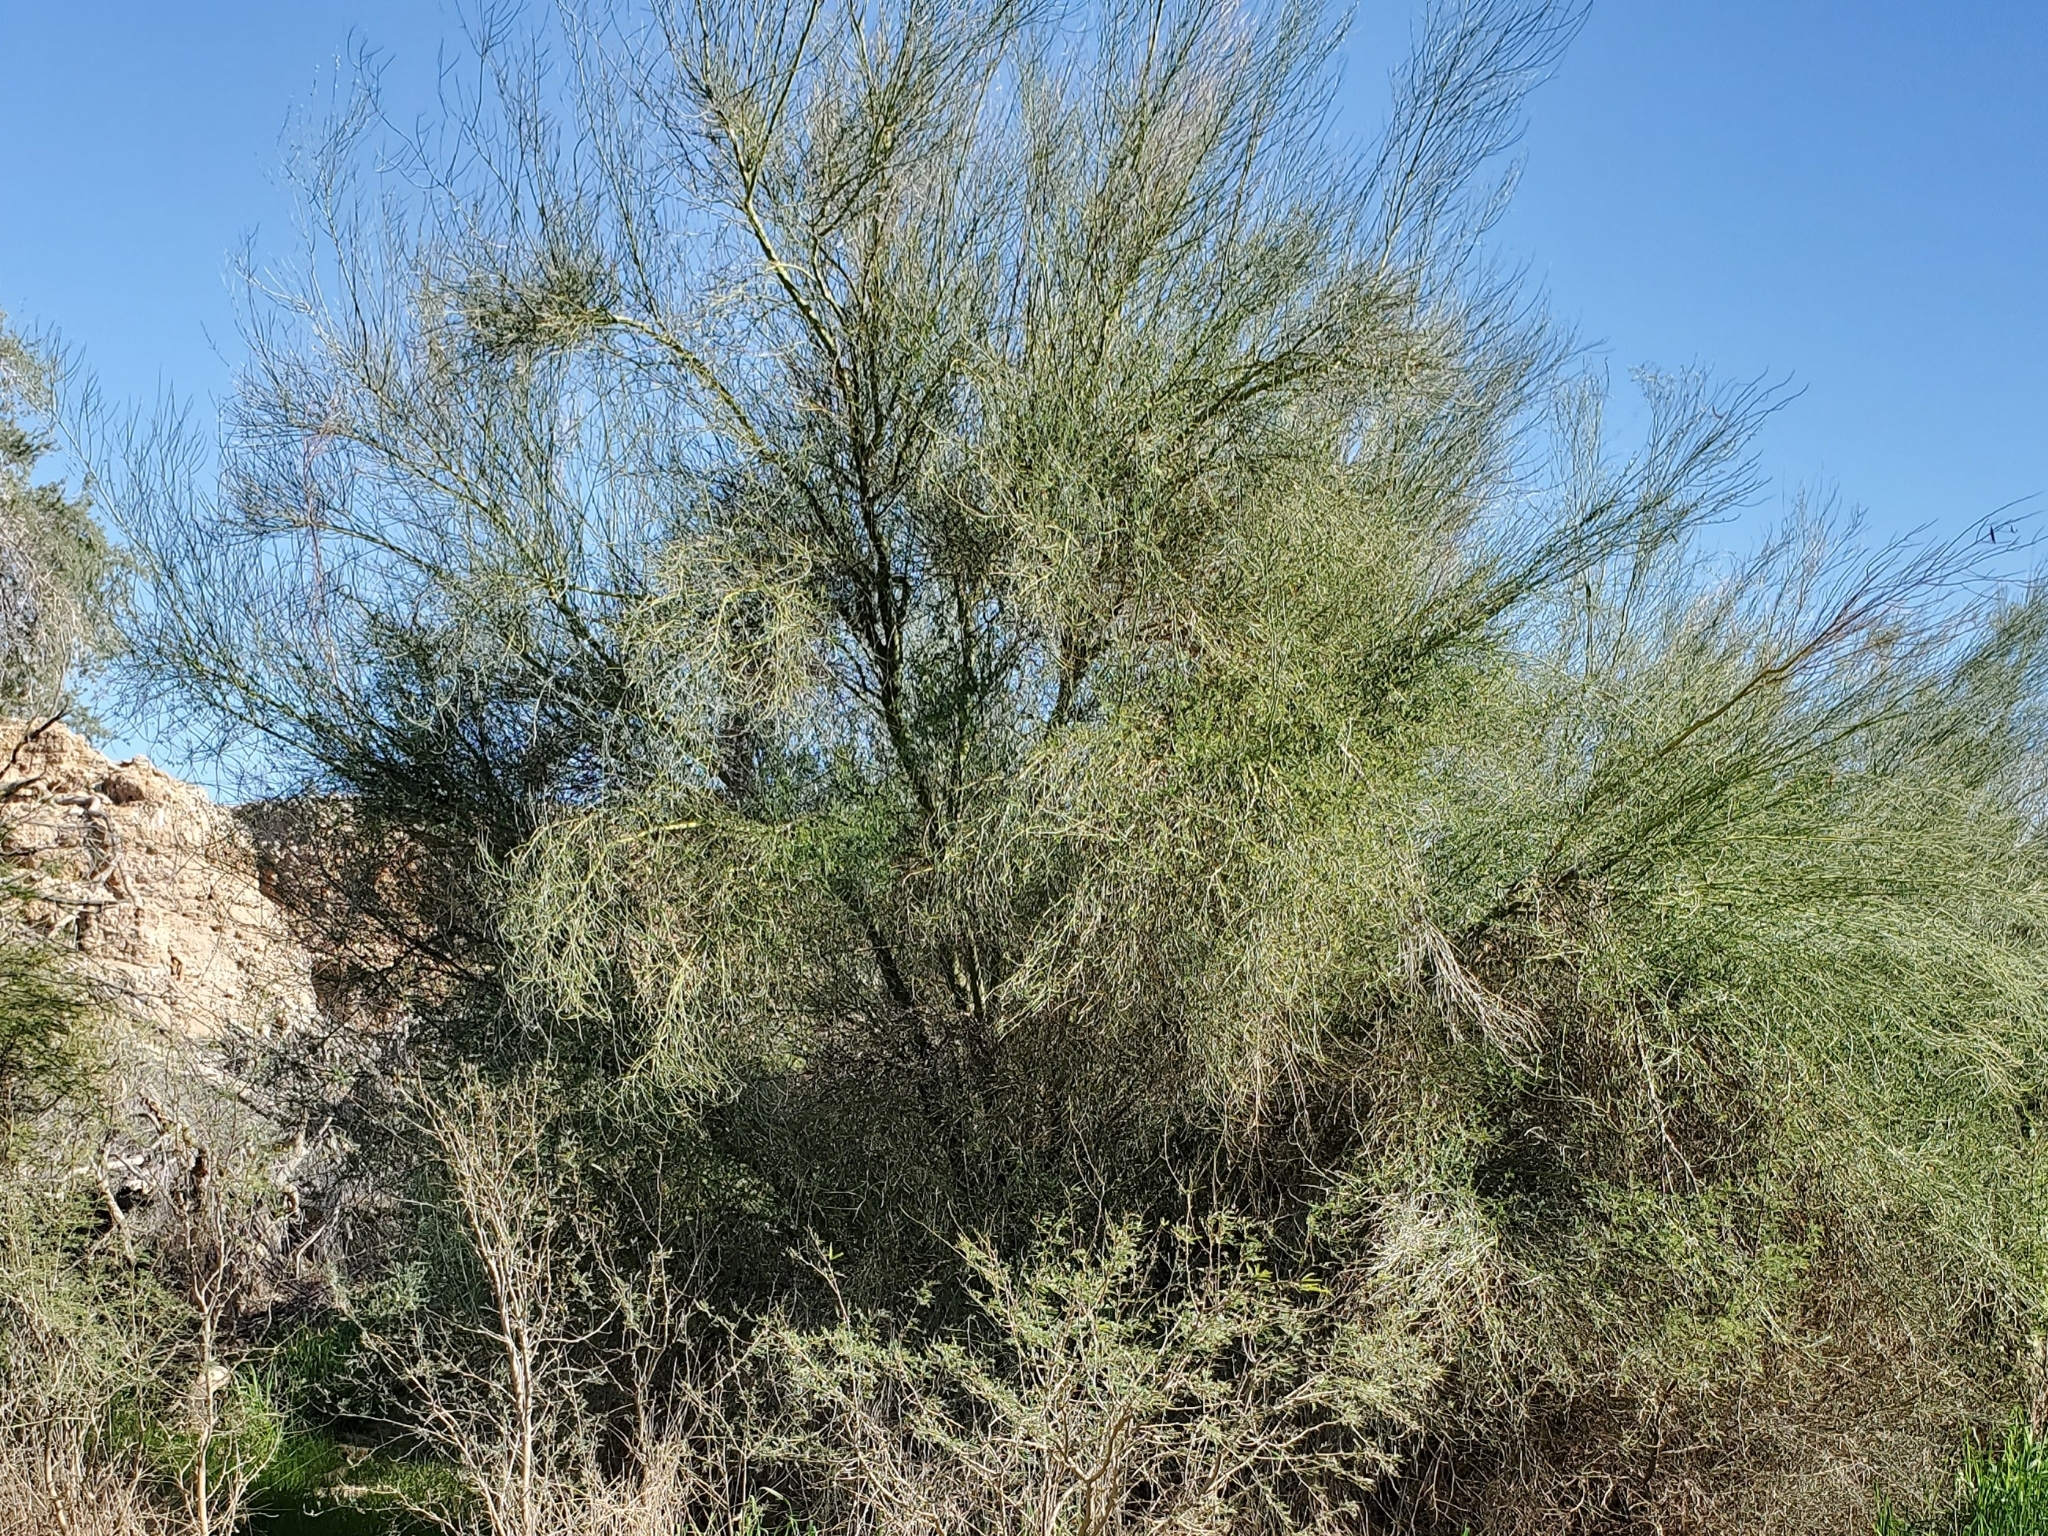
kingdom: Plantae
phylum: Tracheophyta
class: Magnoliopsida
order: Fabales
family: Fabaceae
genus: Parkinsonia
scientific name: Parkinsonia florida
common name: Blue paloverde
